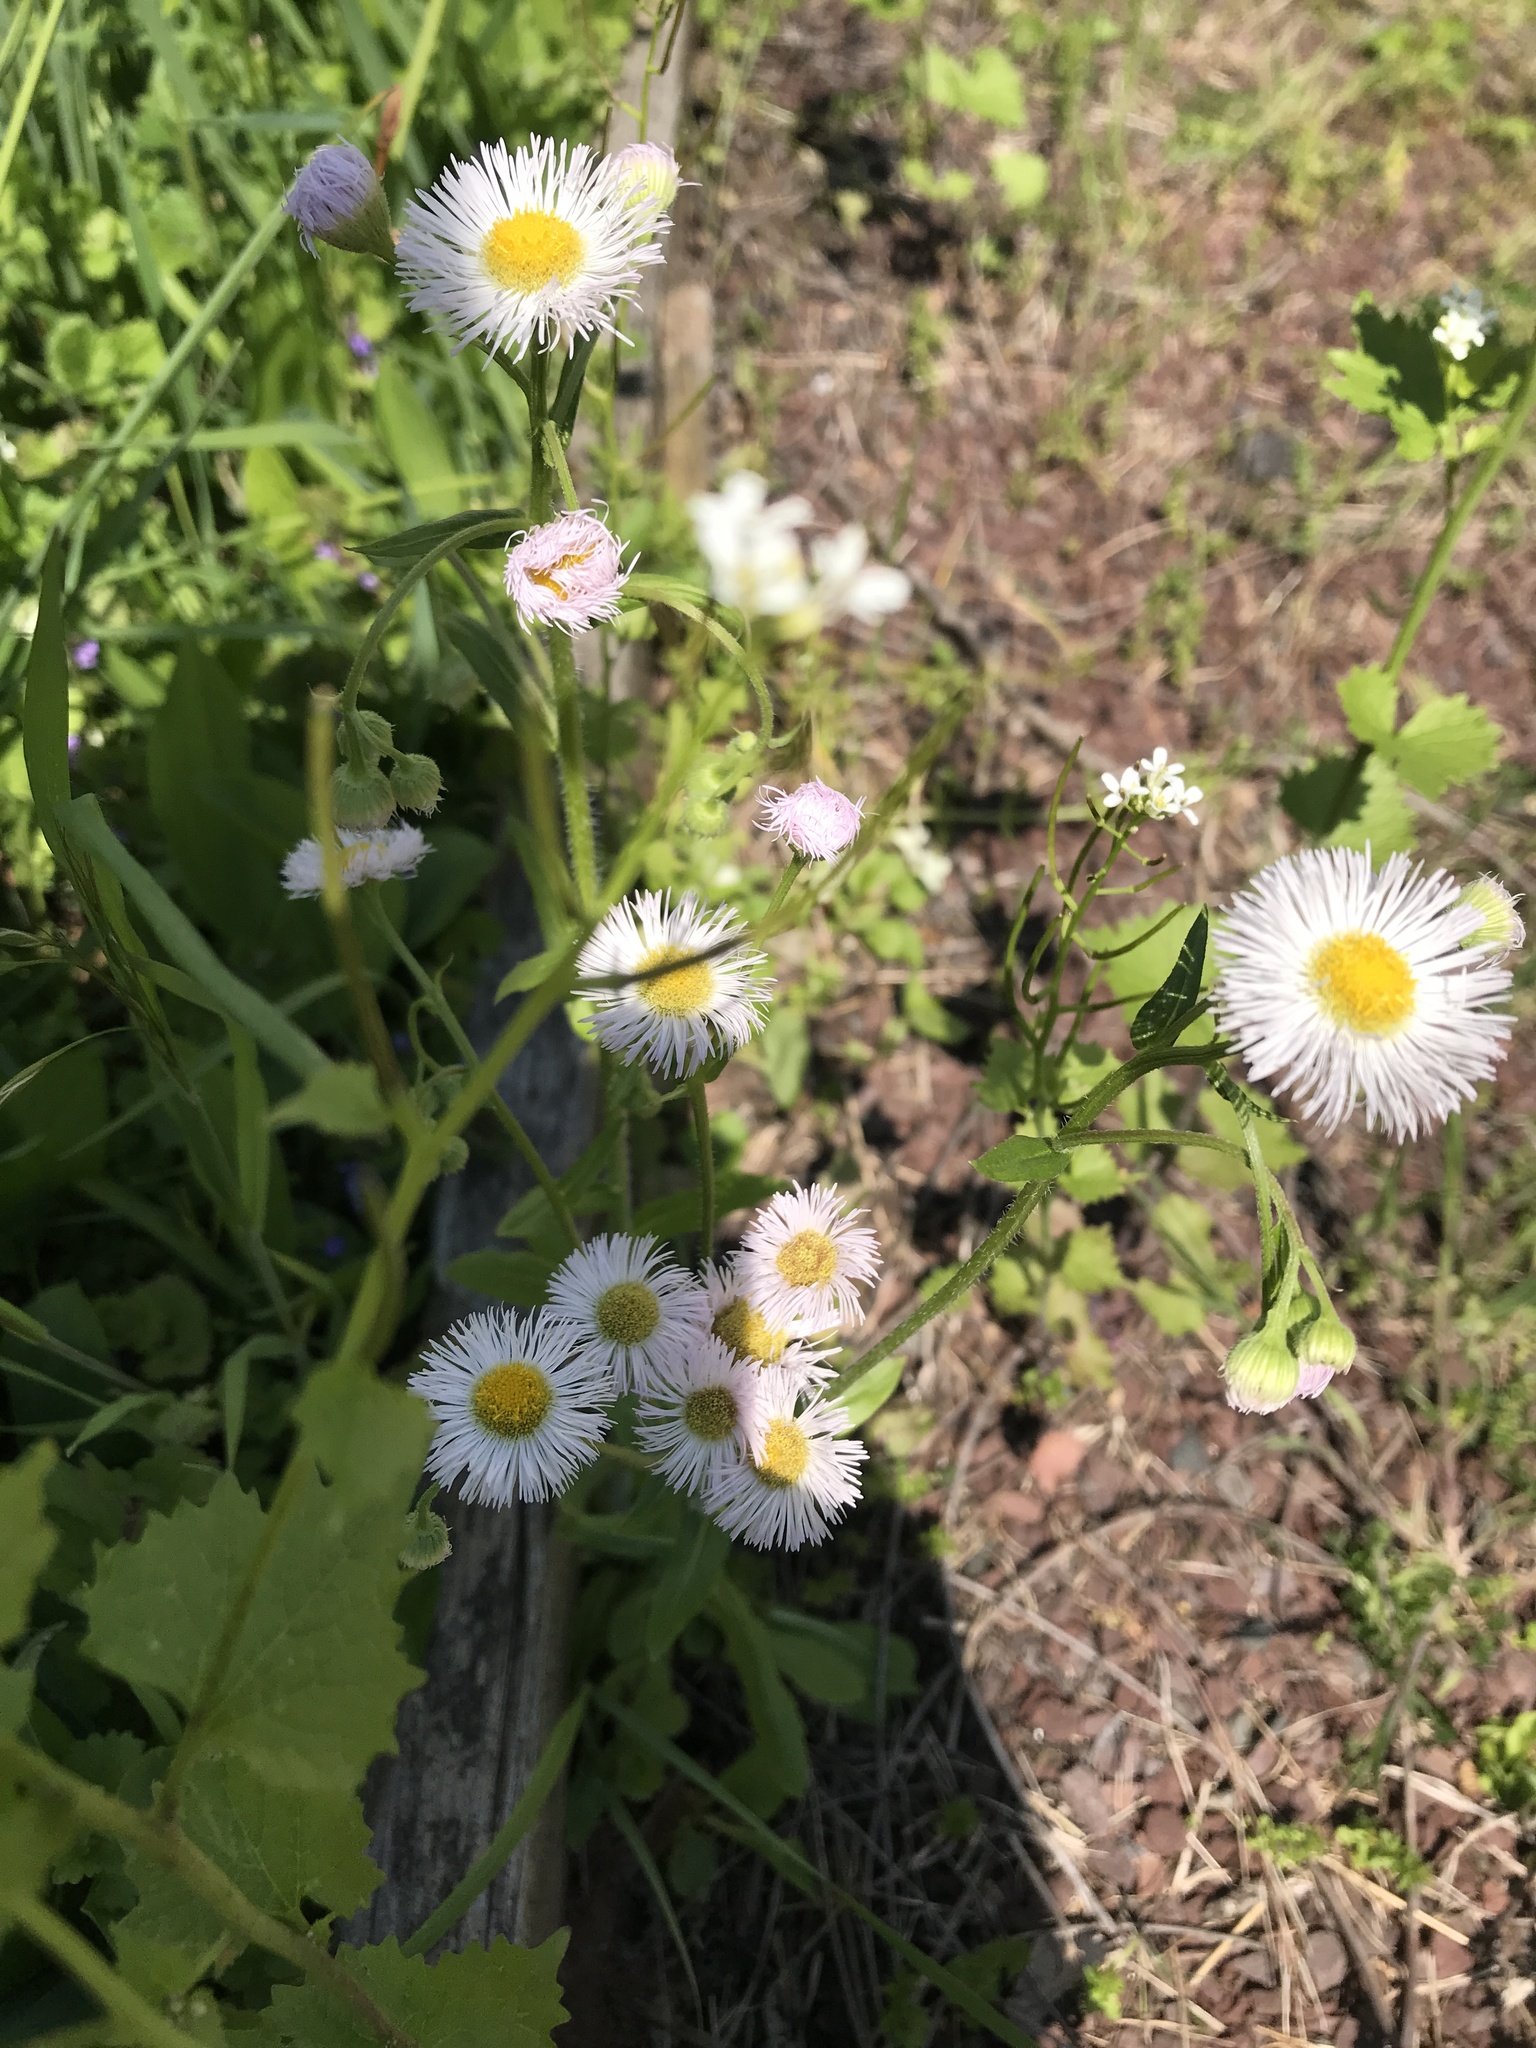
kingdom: Plantae
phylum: Tracheophyta
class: Magnoliopsida
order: Asterales
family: Asteraceae
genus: Erigeron
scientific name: Erigeron philadelphicus
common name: Robin's-plantain
